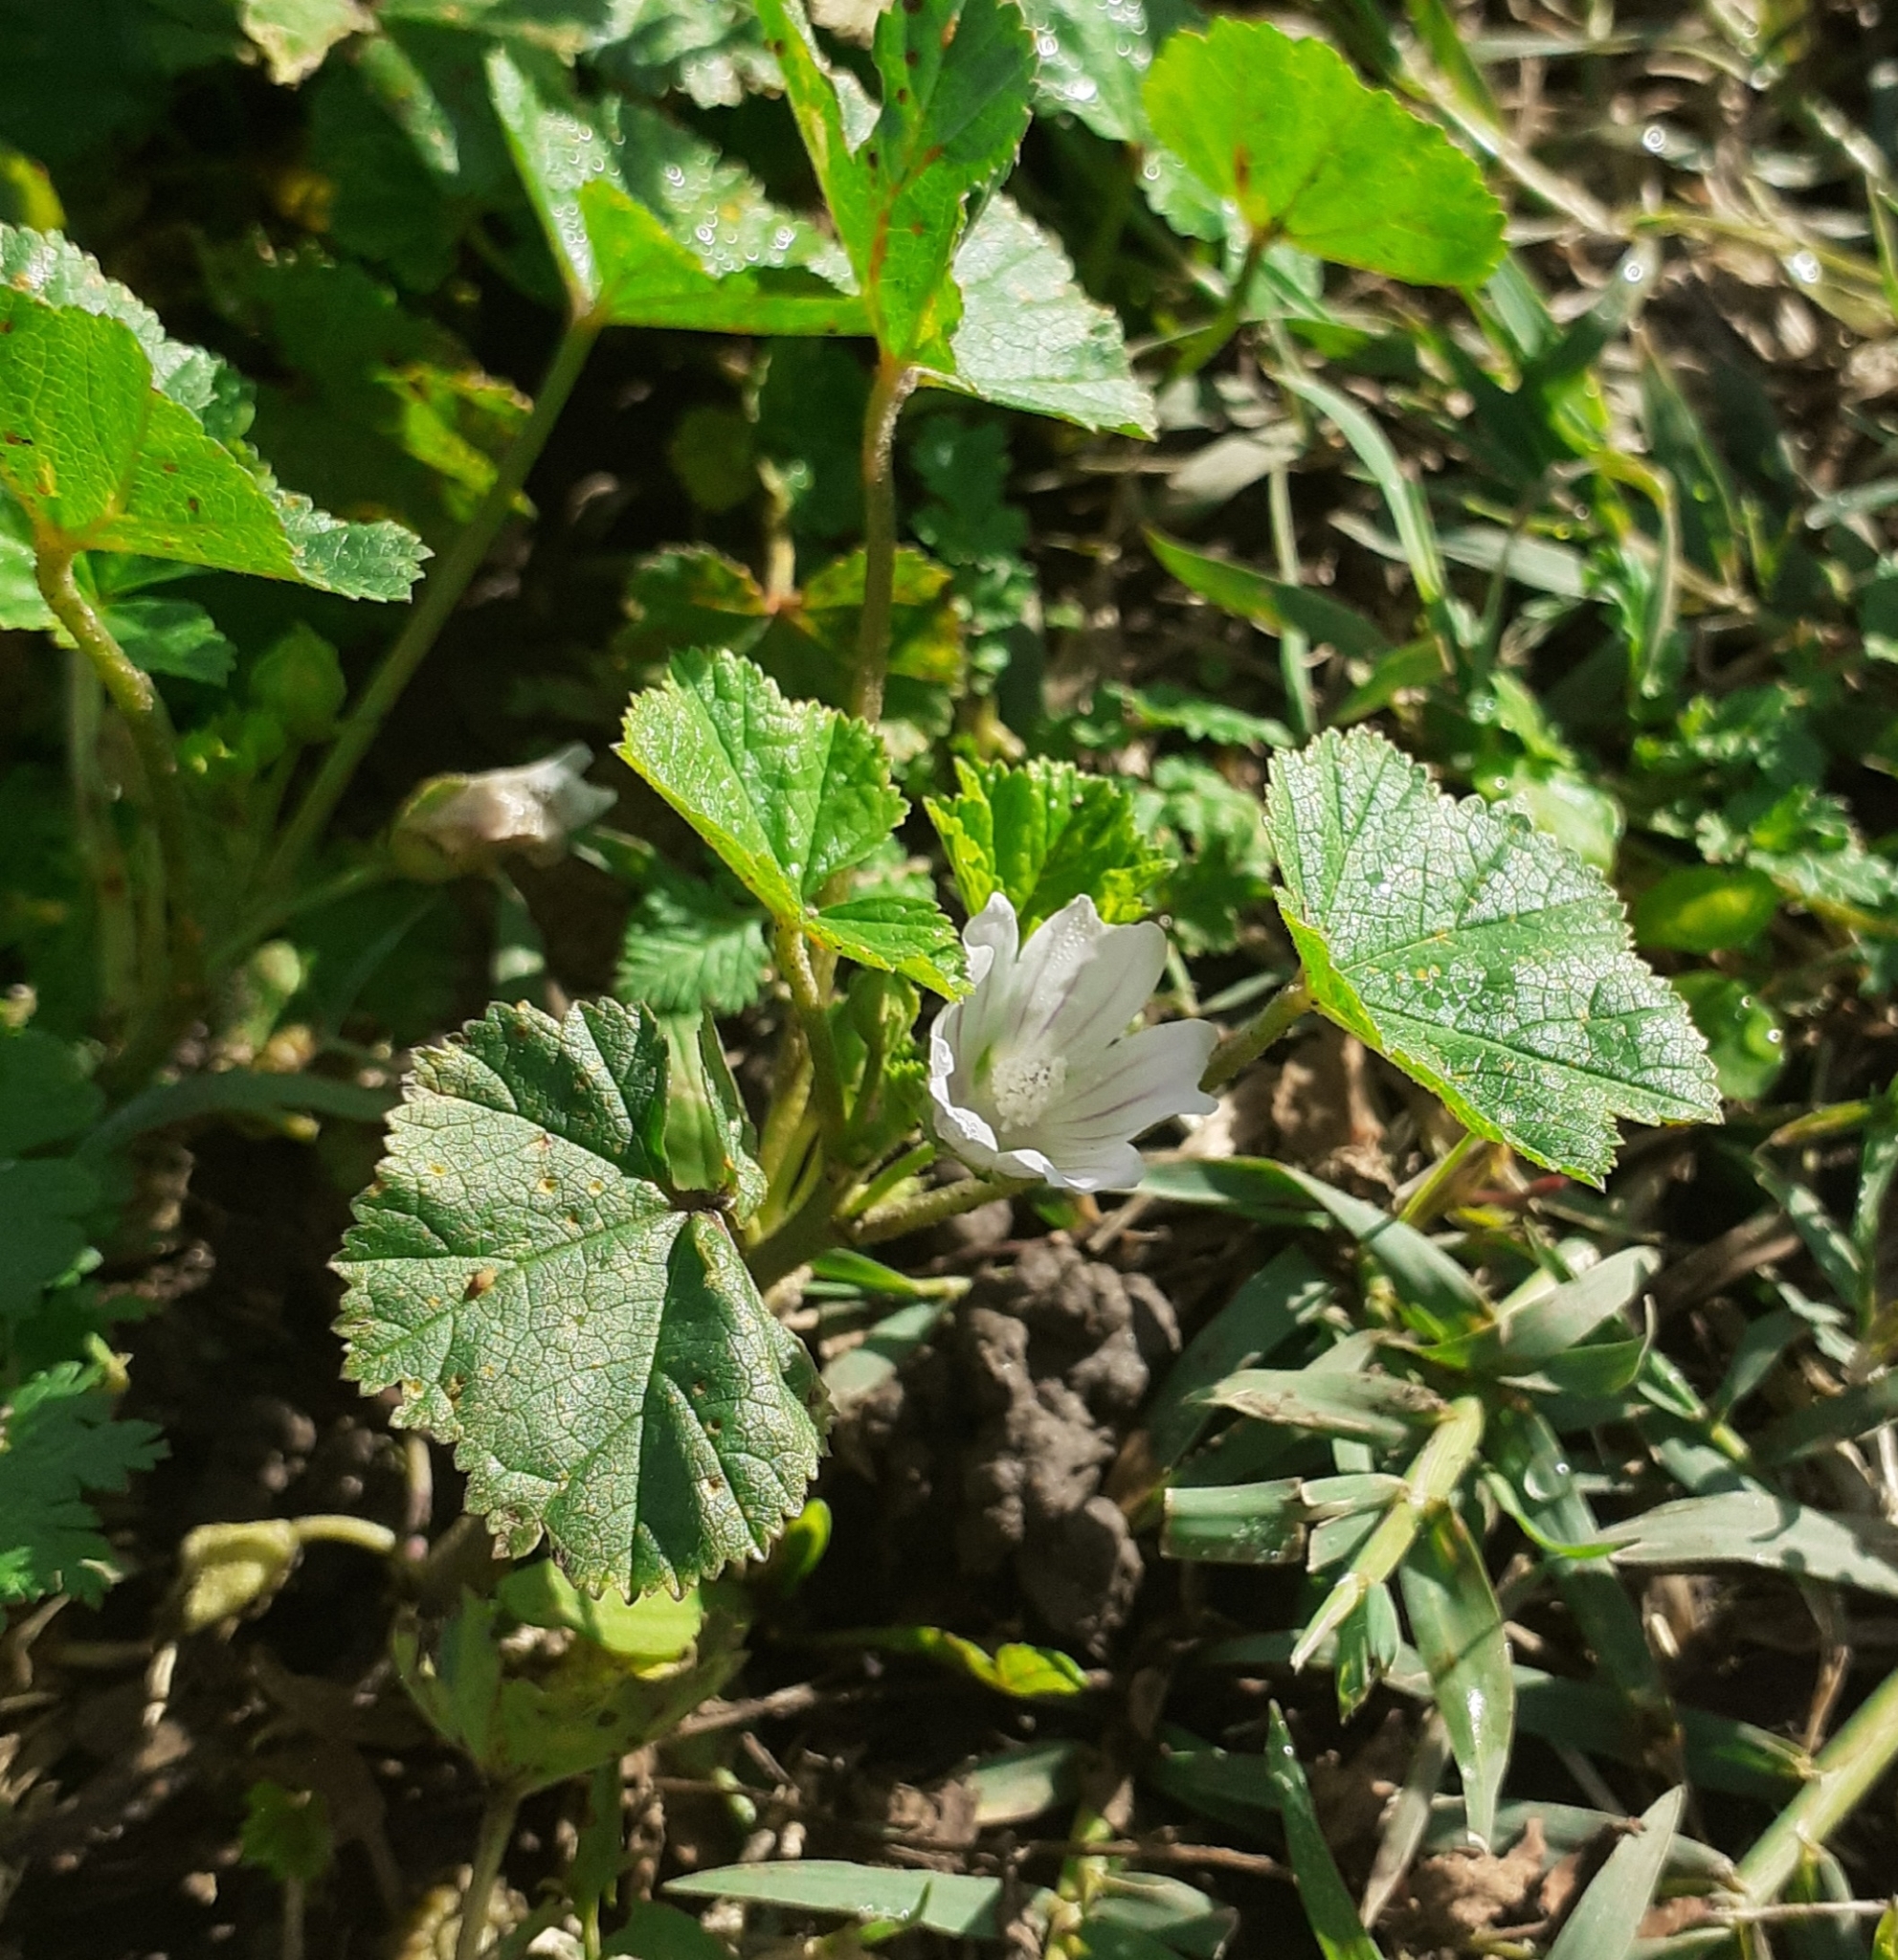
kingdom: Plantae
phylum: Tracheophyta
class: Magnoliopsida
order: Malvales
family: Malvaceae
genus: Malva
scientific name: Malva neglecta
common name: Common mallow
